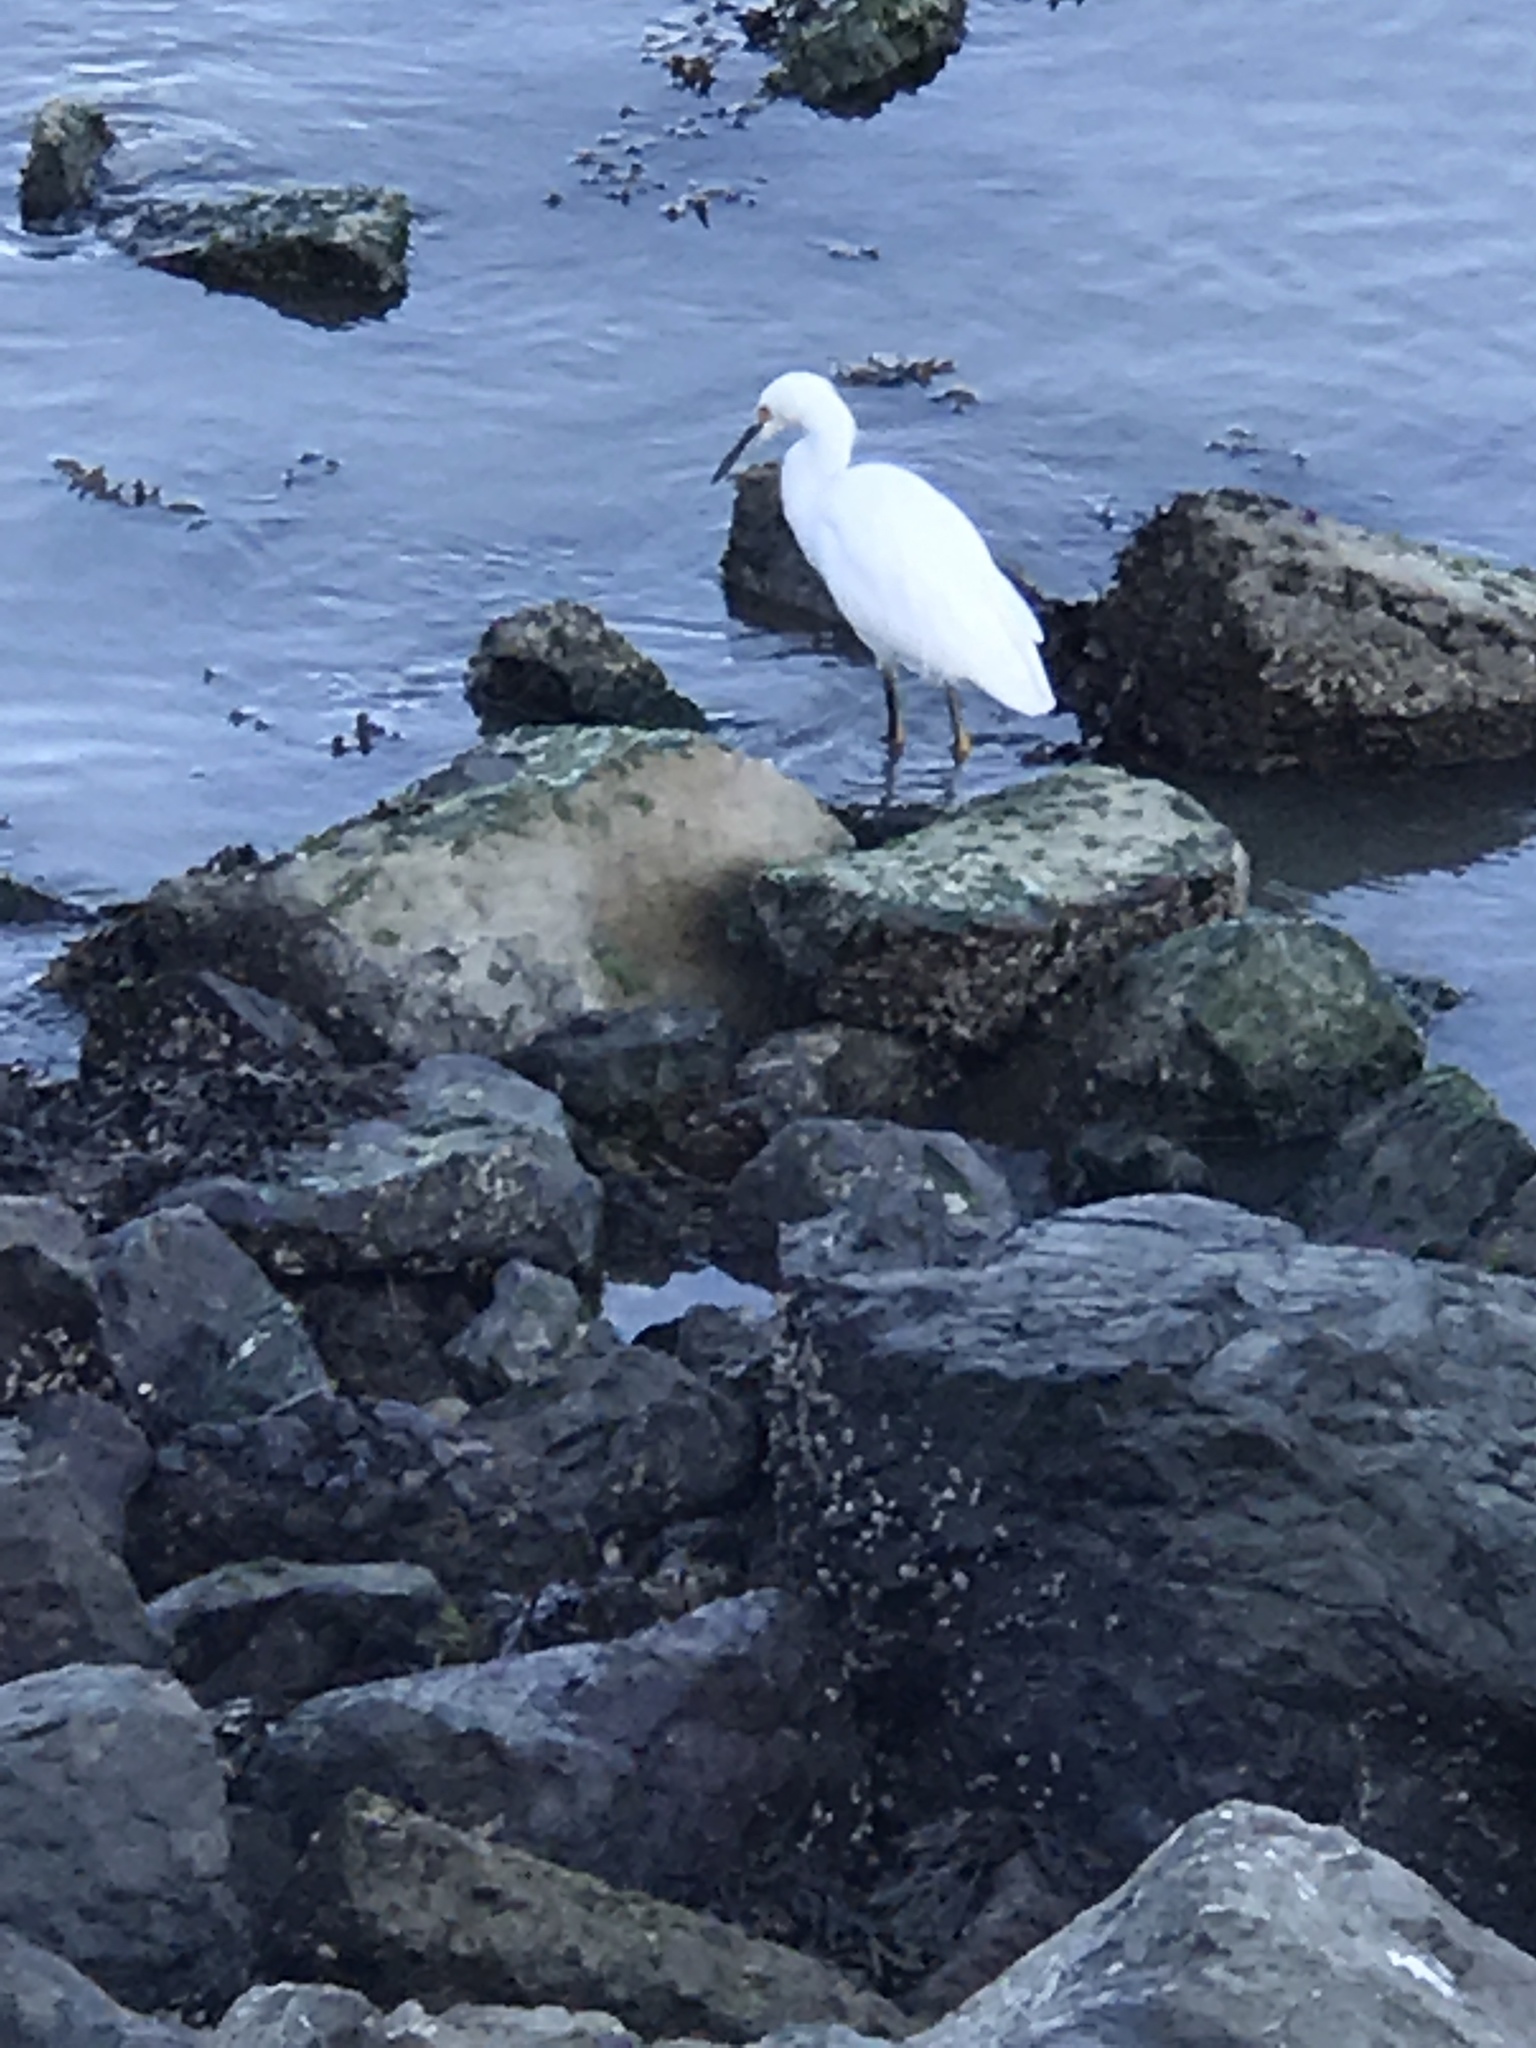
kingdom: Animalia
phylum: Chordata
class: Aves
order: Pelecaniformes
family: Ardeidae
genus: Egretta
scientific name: Egretta thula
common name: Snowy egret
